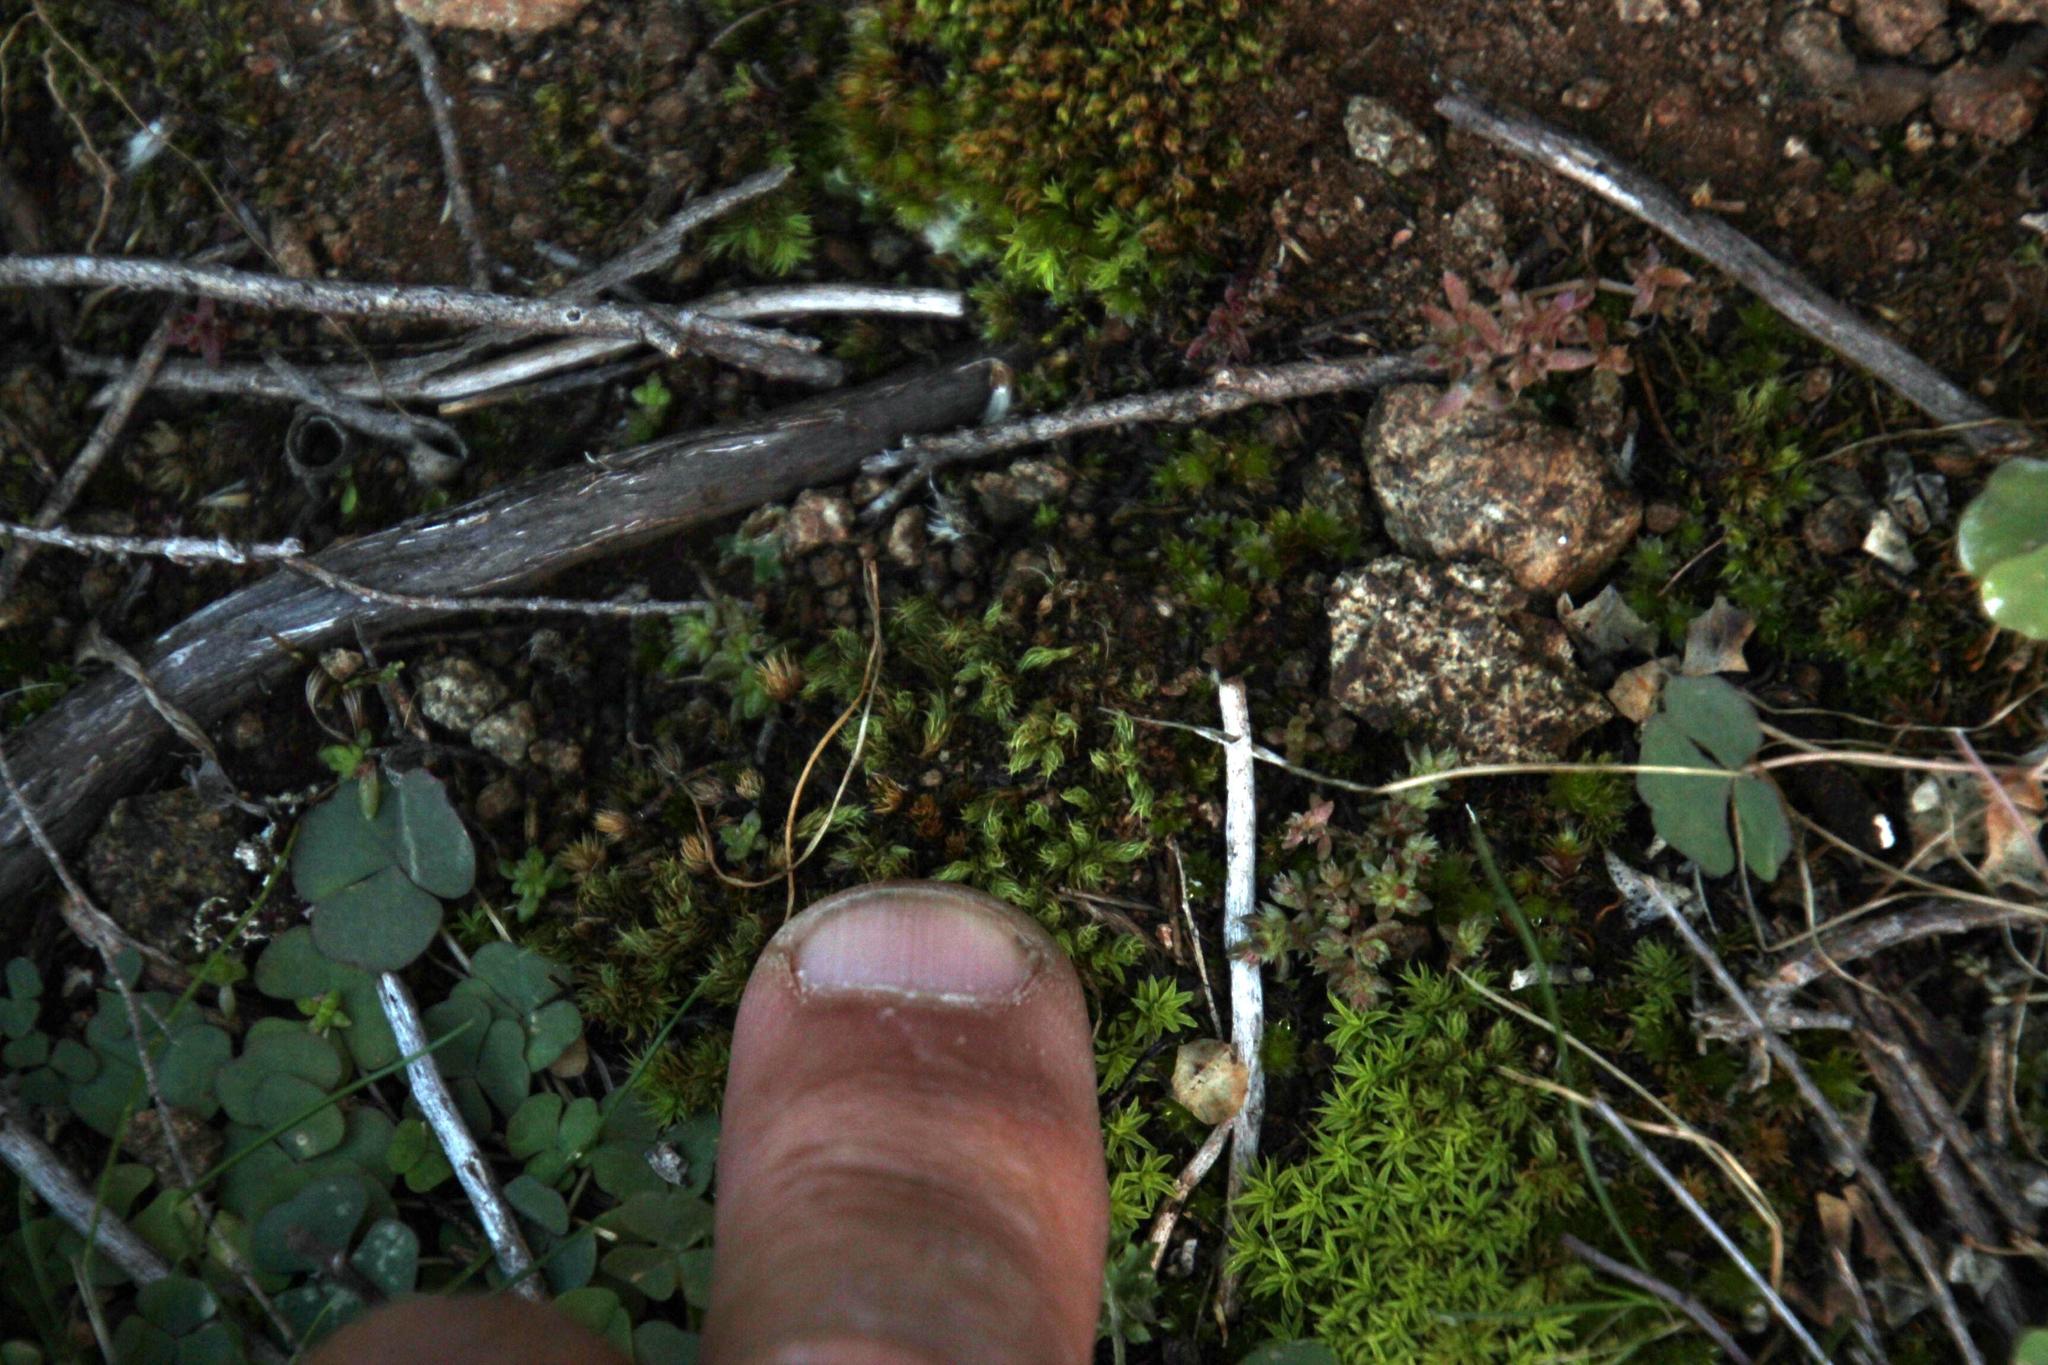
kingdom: Plantae
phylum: Bryophyta
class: Bryopsida
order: Pottiales
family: Pottiaceae
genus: Pseudocrossidium
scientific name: Pseudocrossidium crinitum
